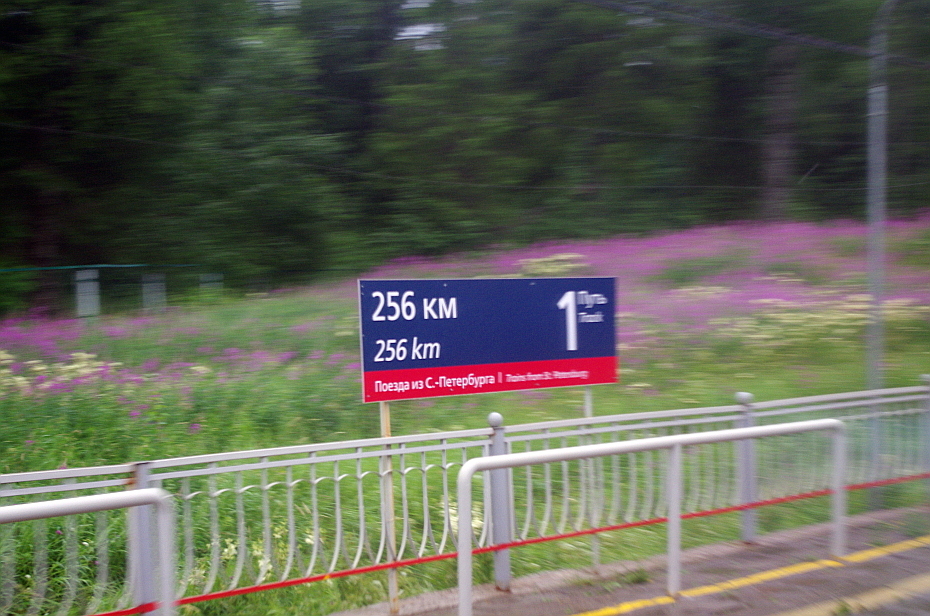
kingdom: Plantae
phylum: Tracheophyta
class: Magnoliopsida
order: Myrtales
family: Onagraceae
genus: Chamaenerion
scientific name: Chamaenerion angustifolium
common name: Fireweed
